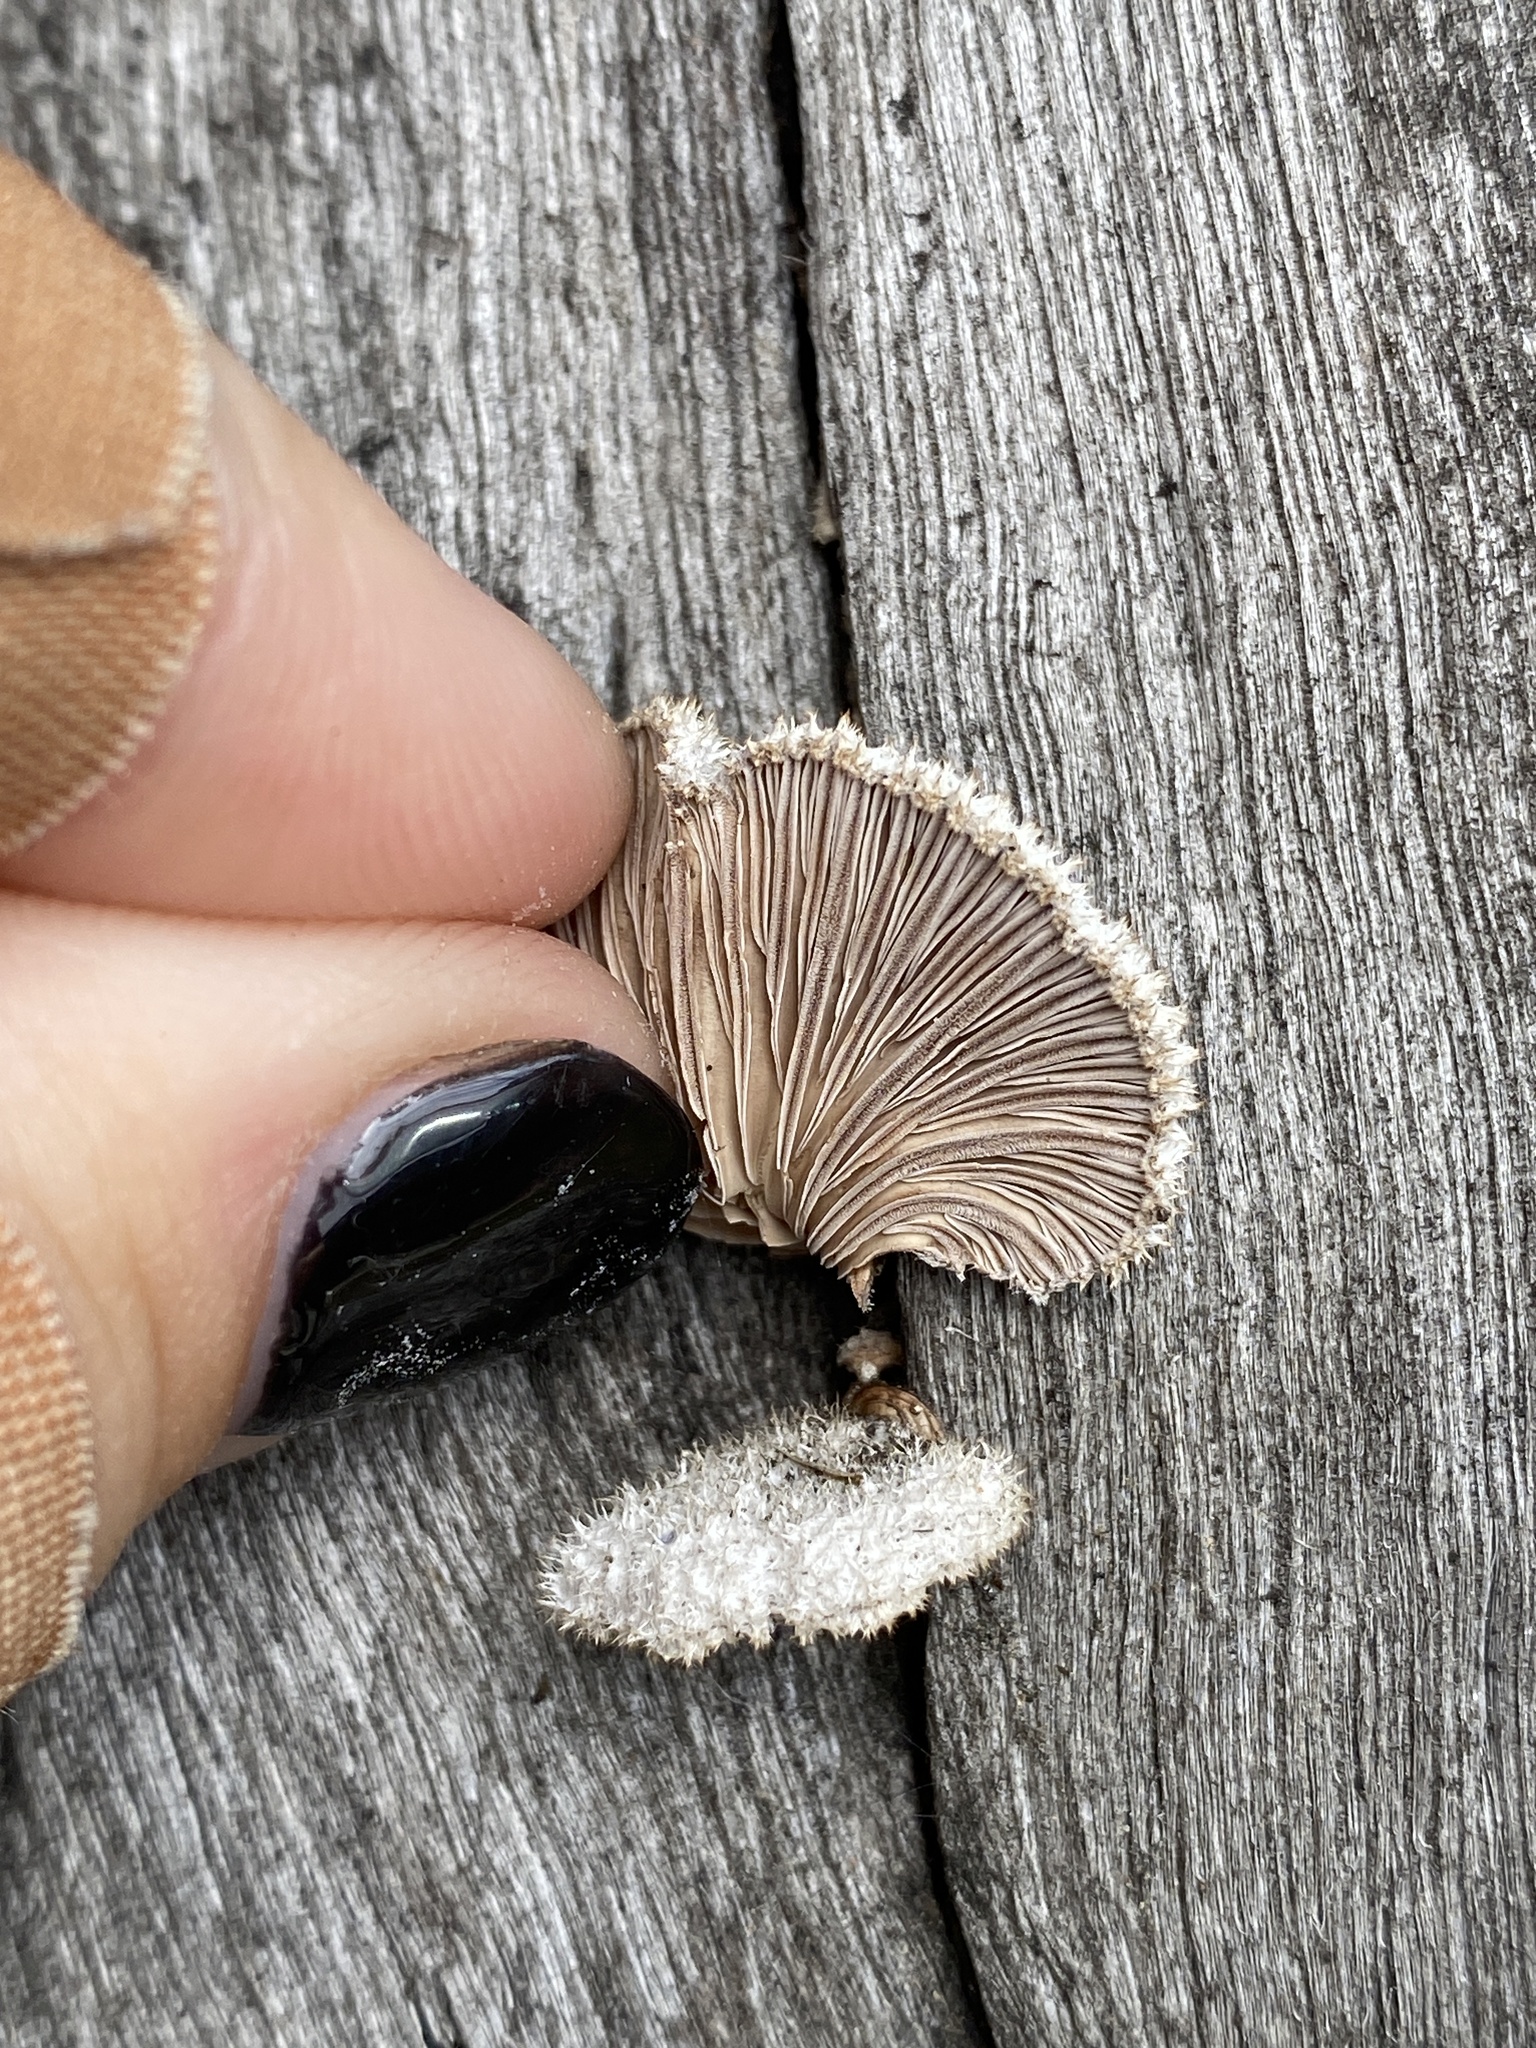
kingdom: Fungi
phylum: Basidiomycota
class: Agaricomycetes
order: Agaricales
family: Schizophyllaceae
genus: Schizophyllum
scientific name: Schizophyllum commune
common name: Common porecrust
